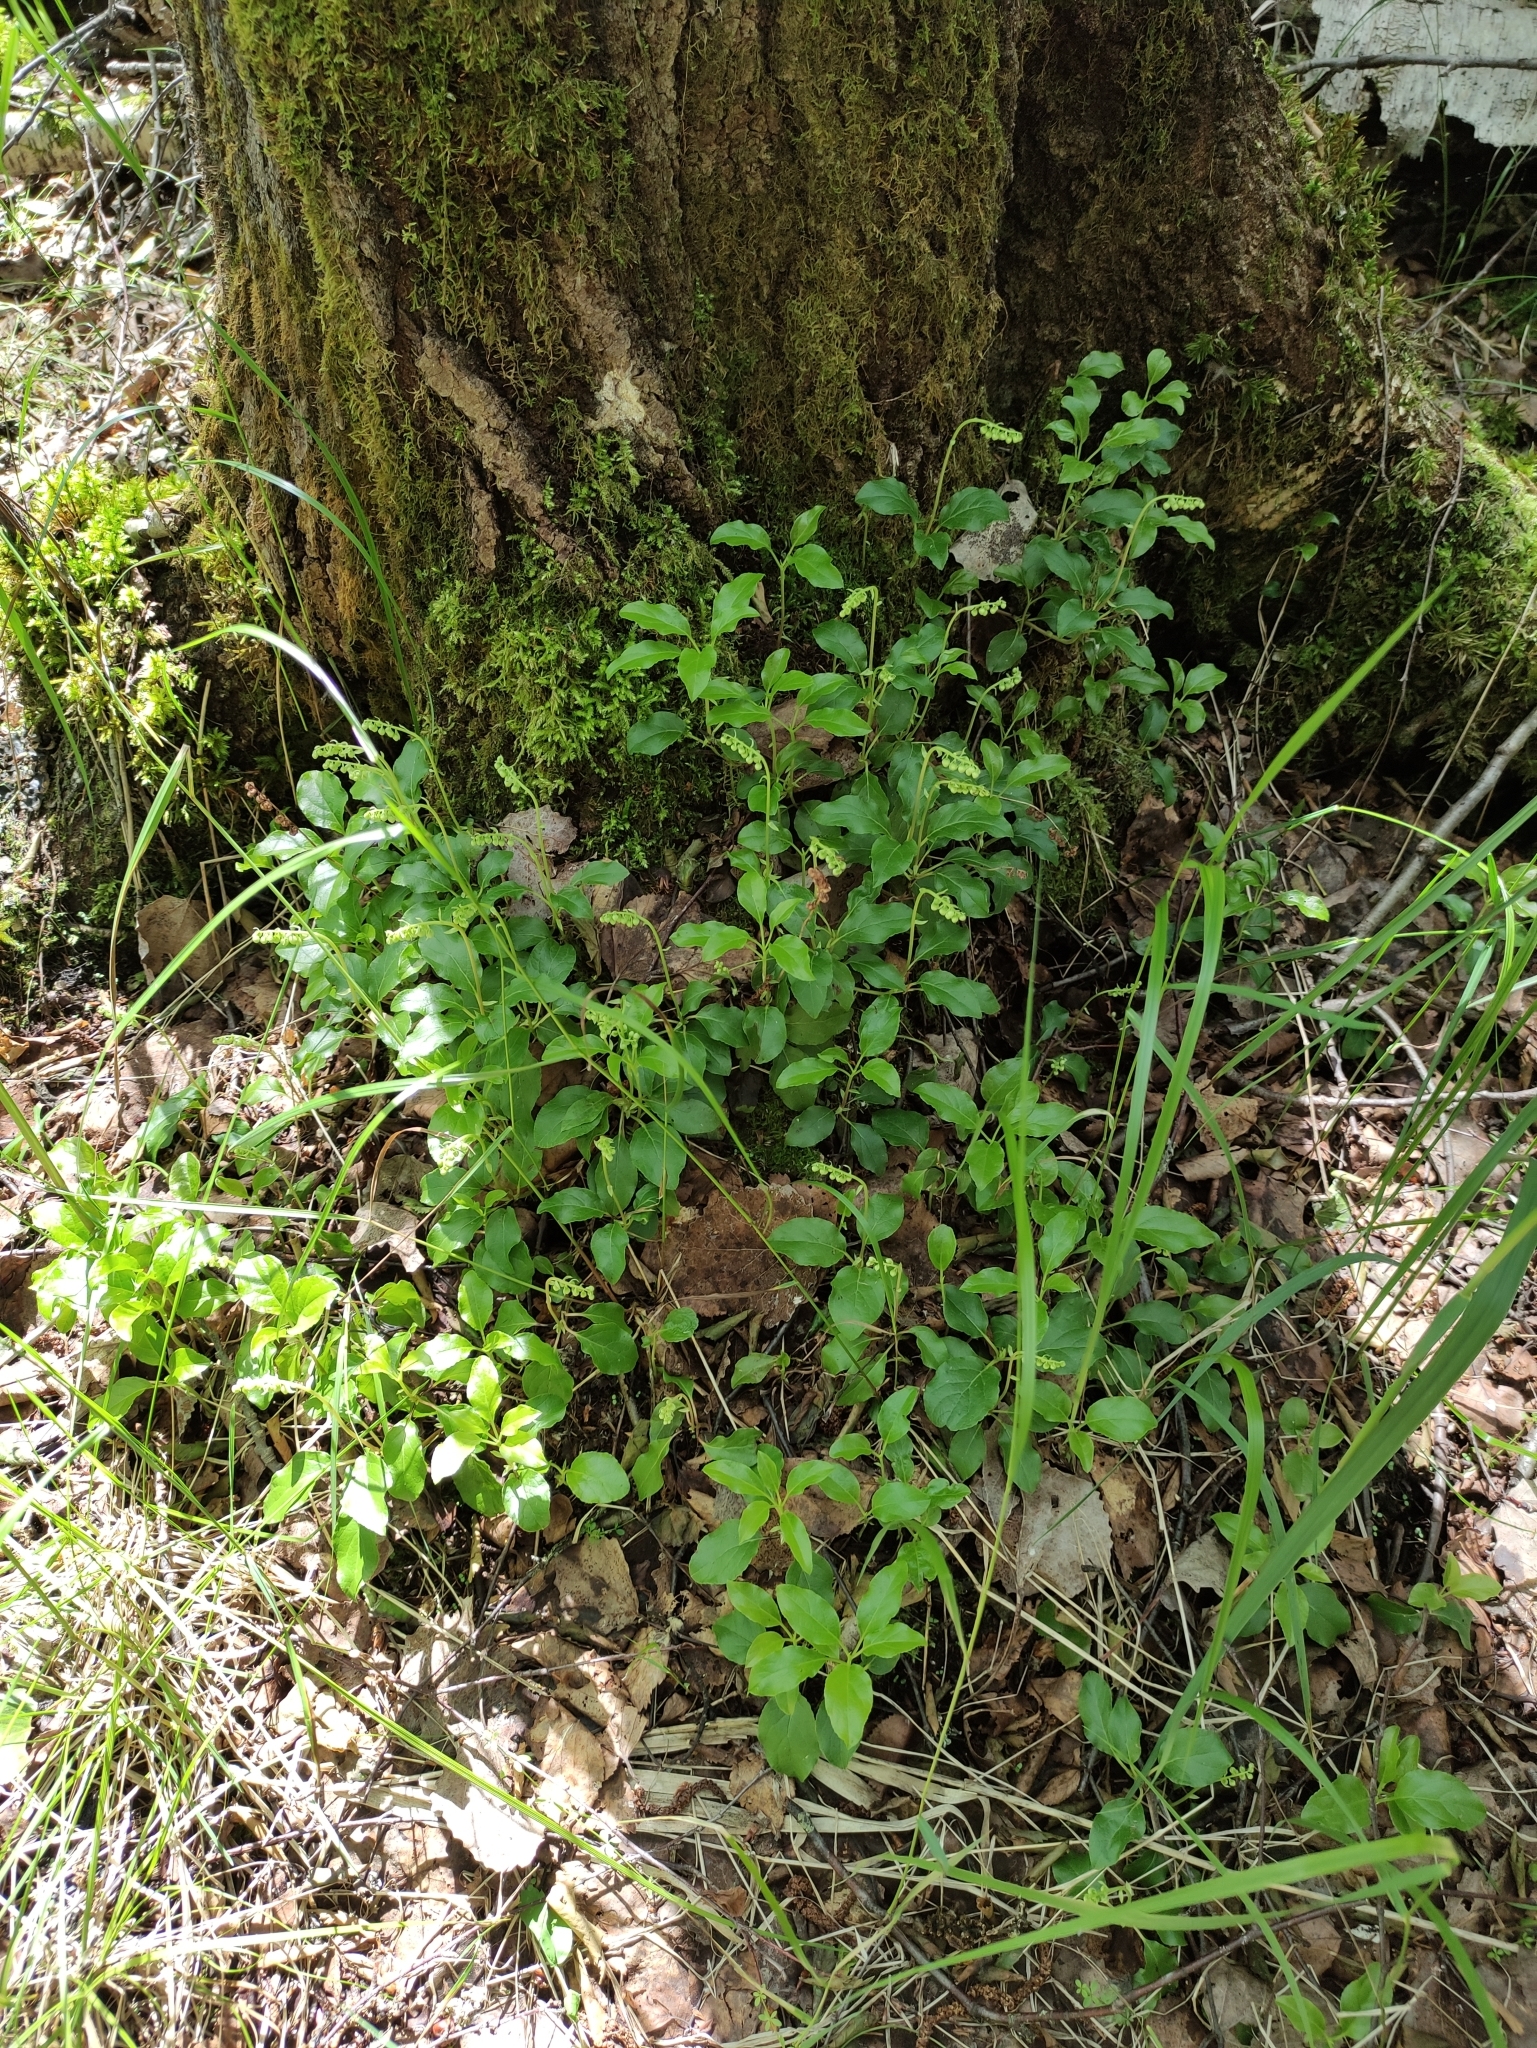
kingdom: Plantae
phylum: Tracheophyta
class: Magnoliopsida
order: Ericales
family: Ericaceae
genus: Orthilia
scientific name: Orthilia secunda
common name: One-sided orthilia
